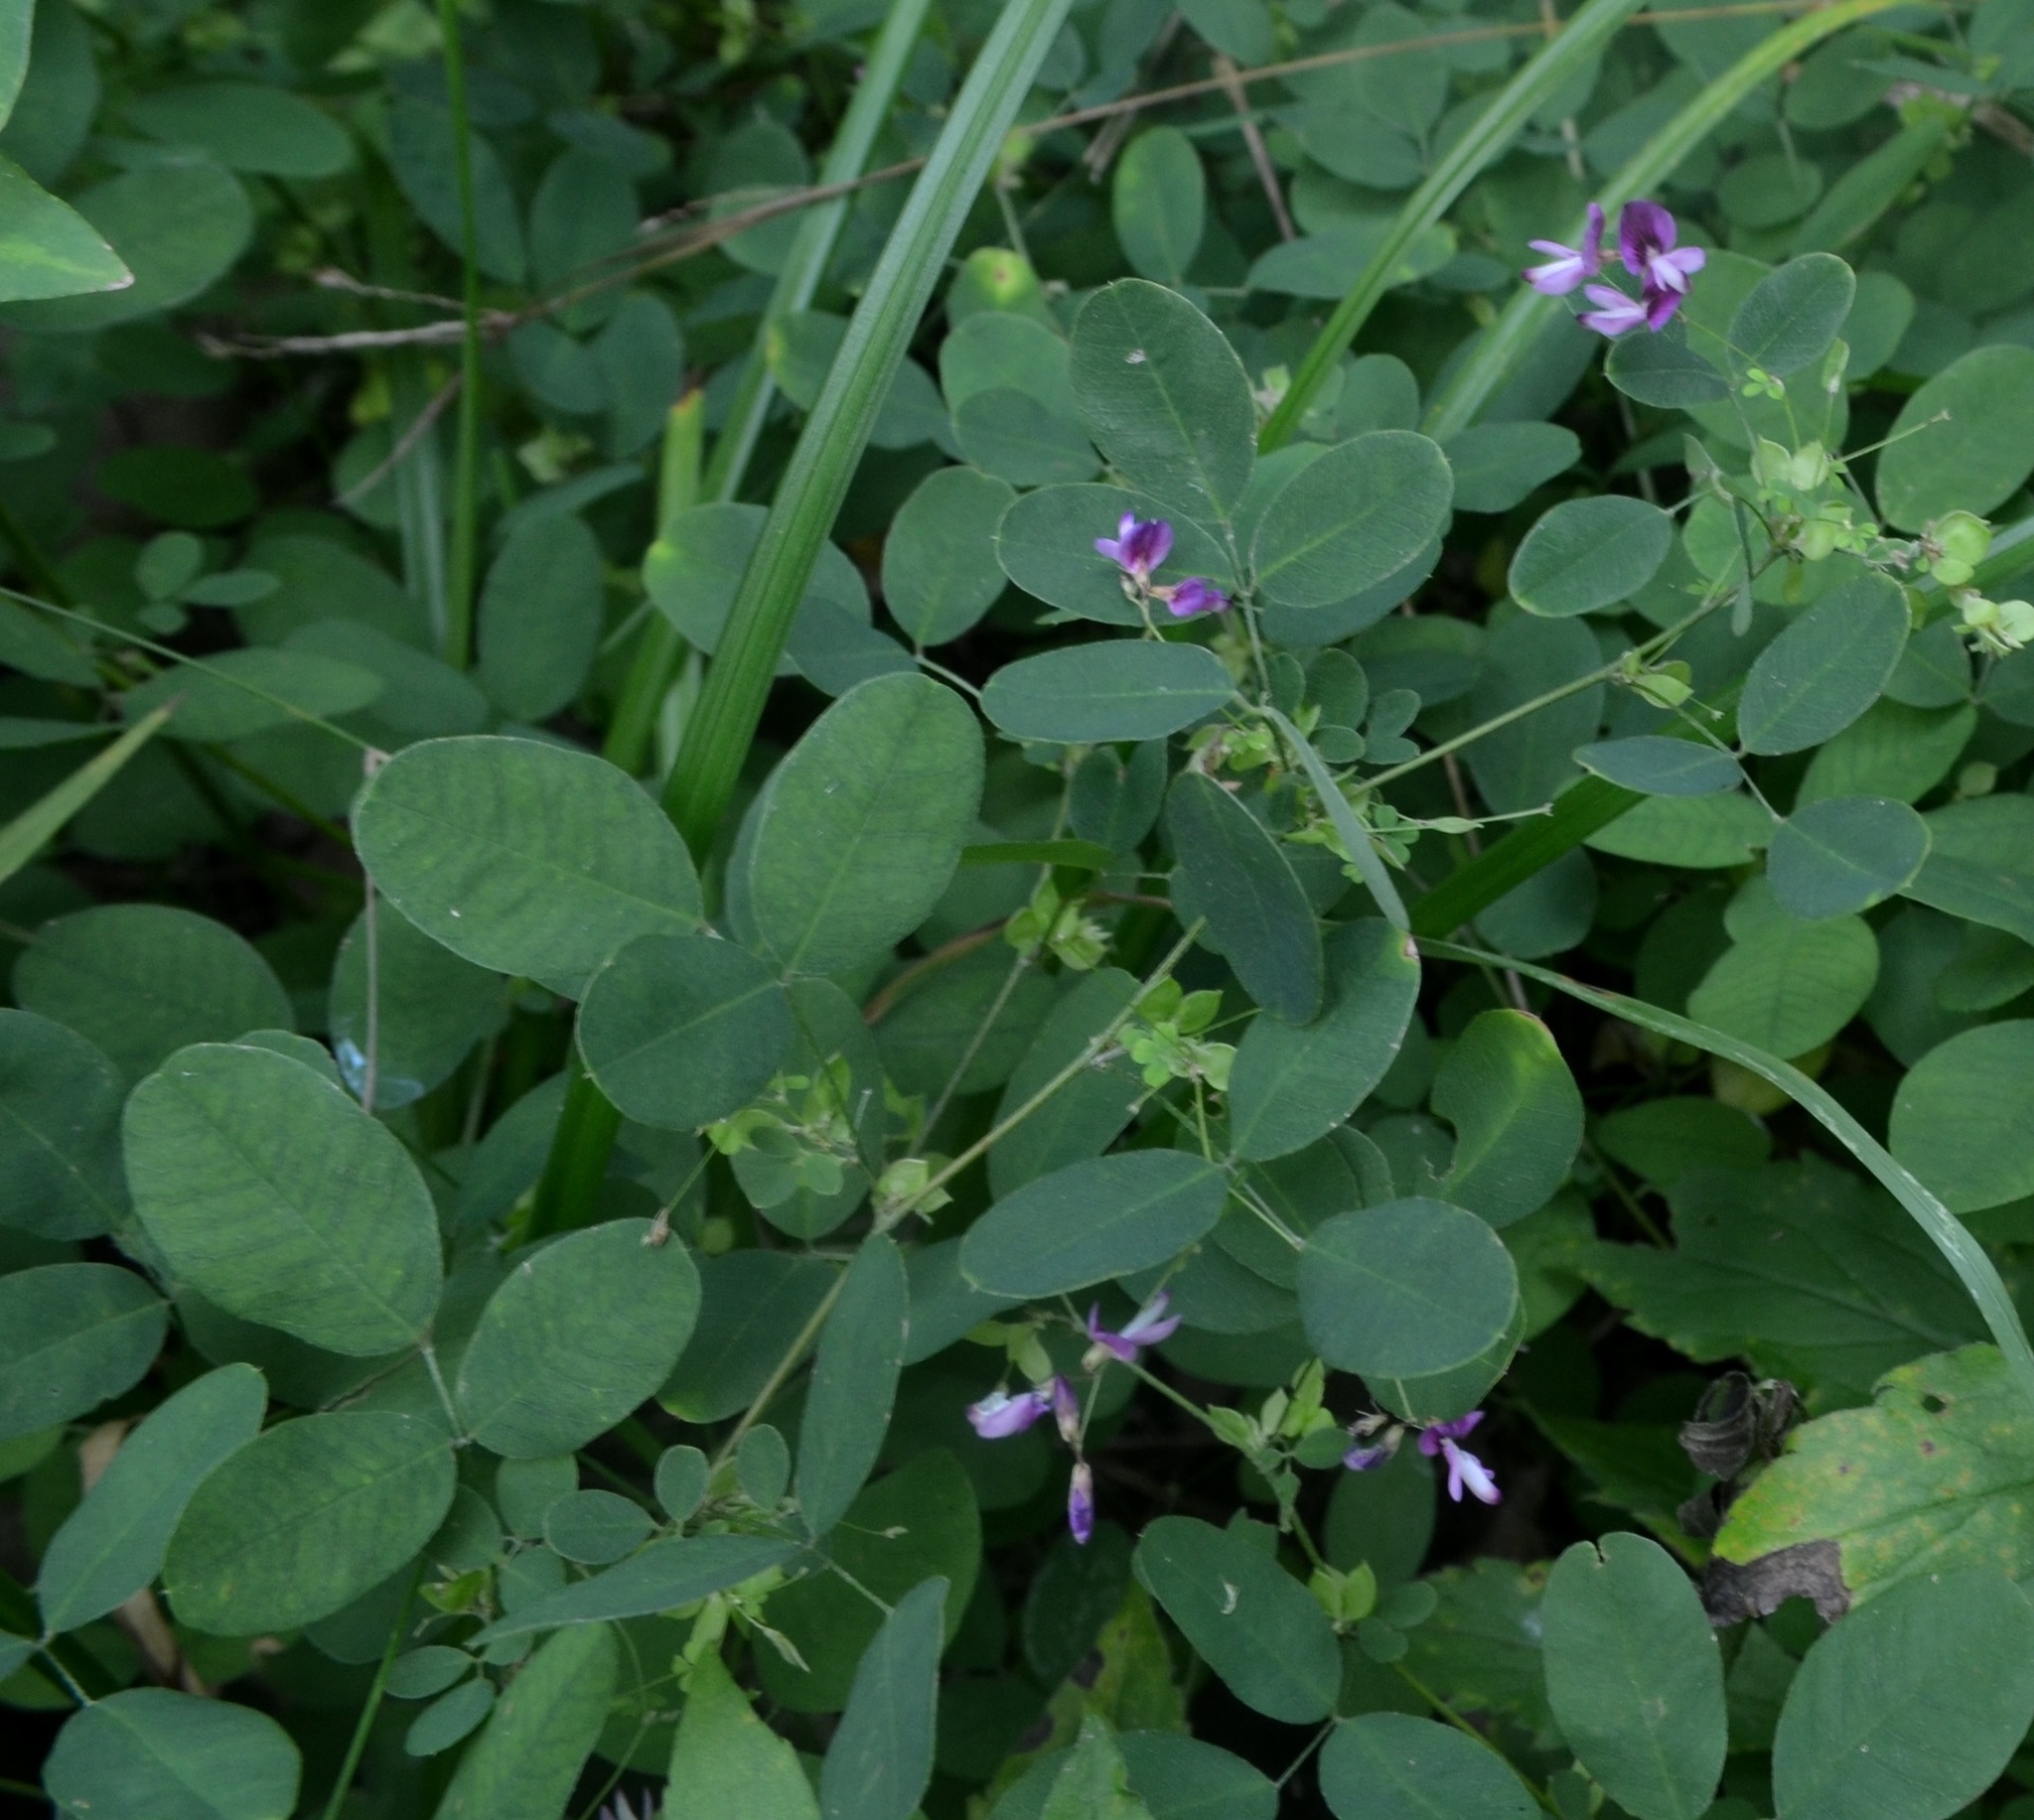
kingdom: Plantae
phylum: Tracheophyta
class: Magnoliopsida
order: Fabales
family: Fabaceae
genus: Lespedeza
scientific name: Lespedeza
